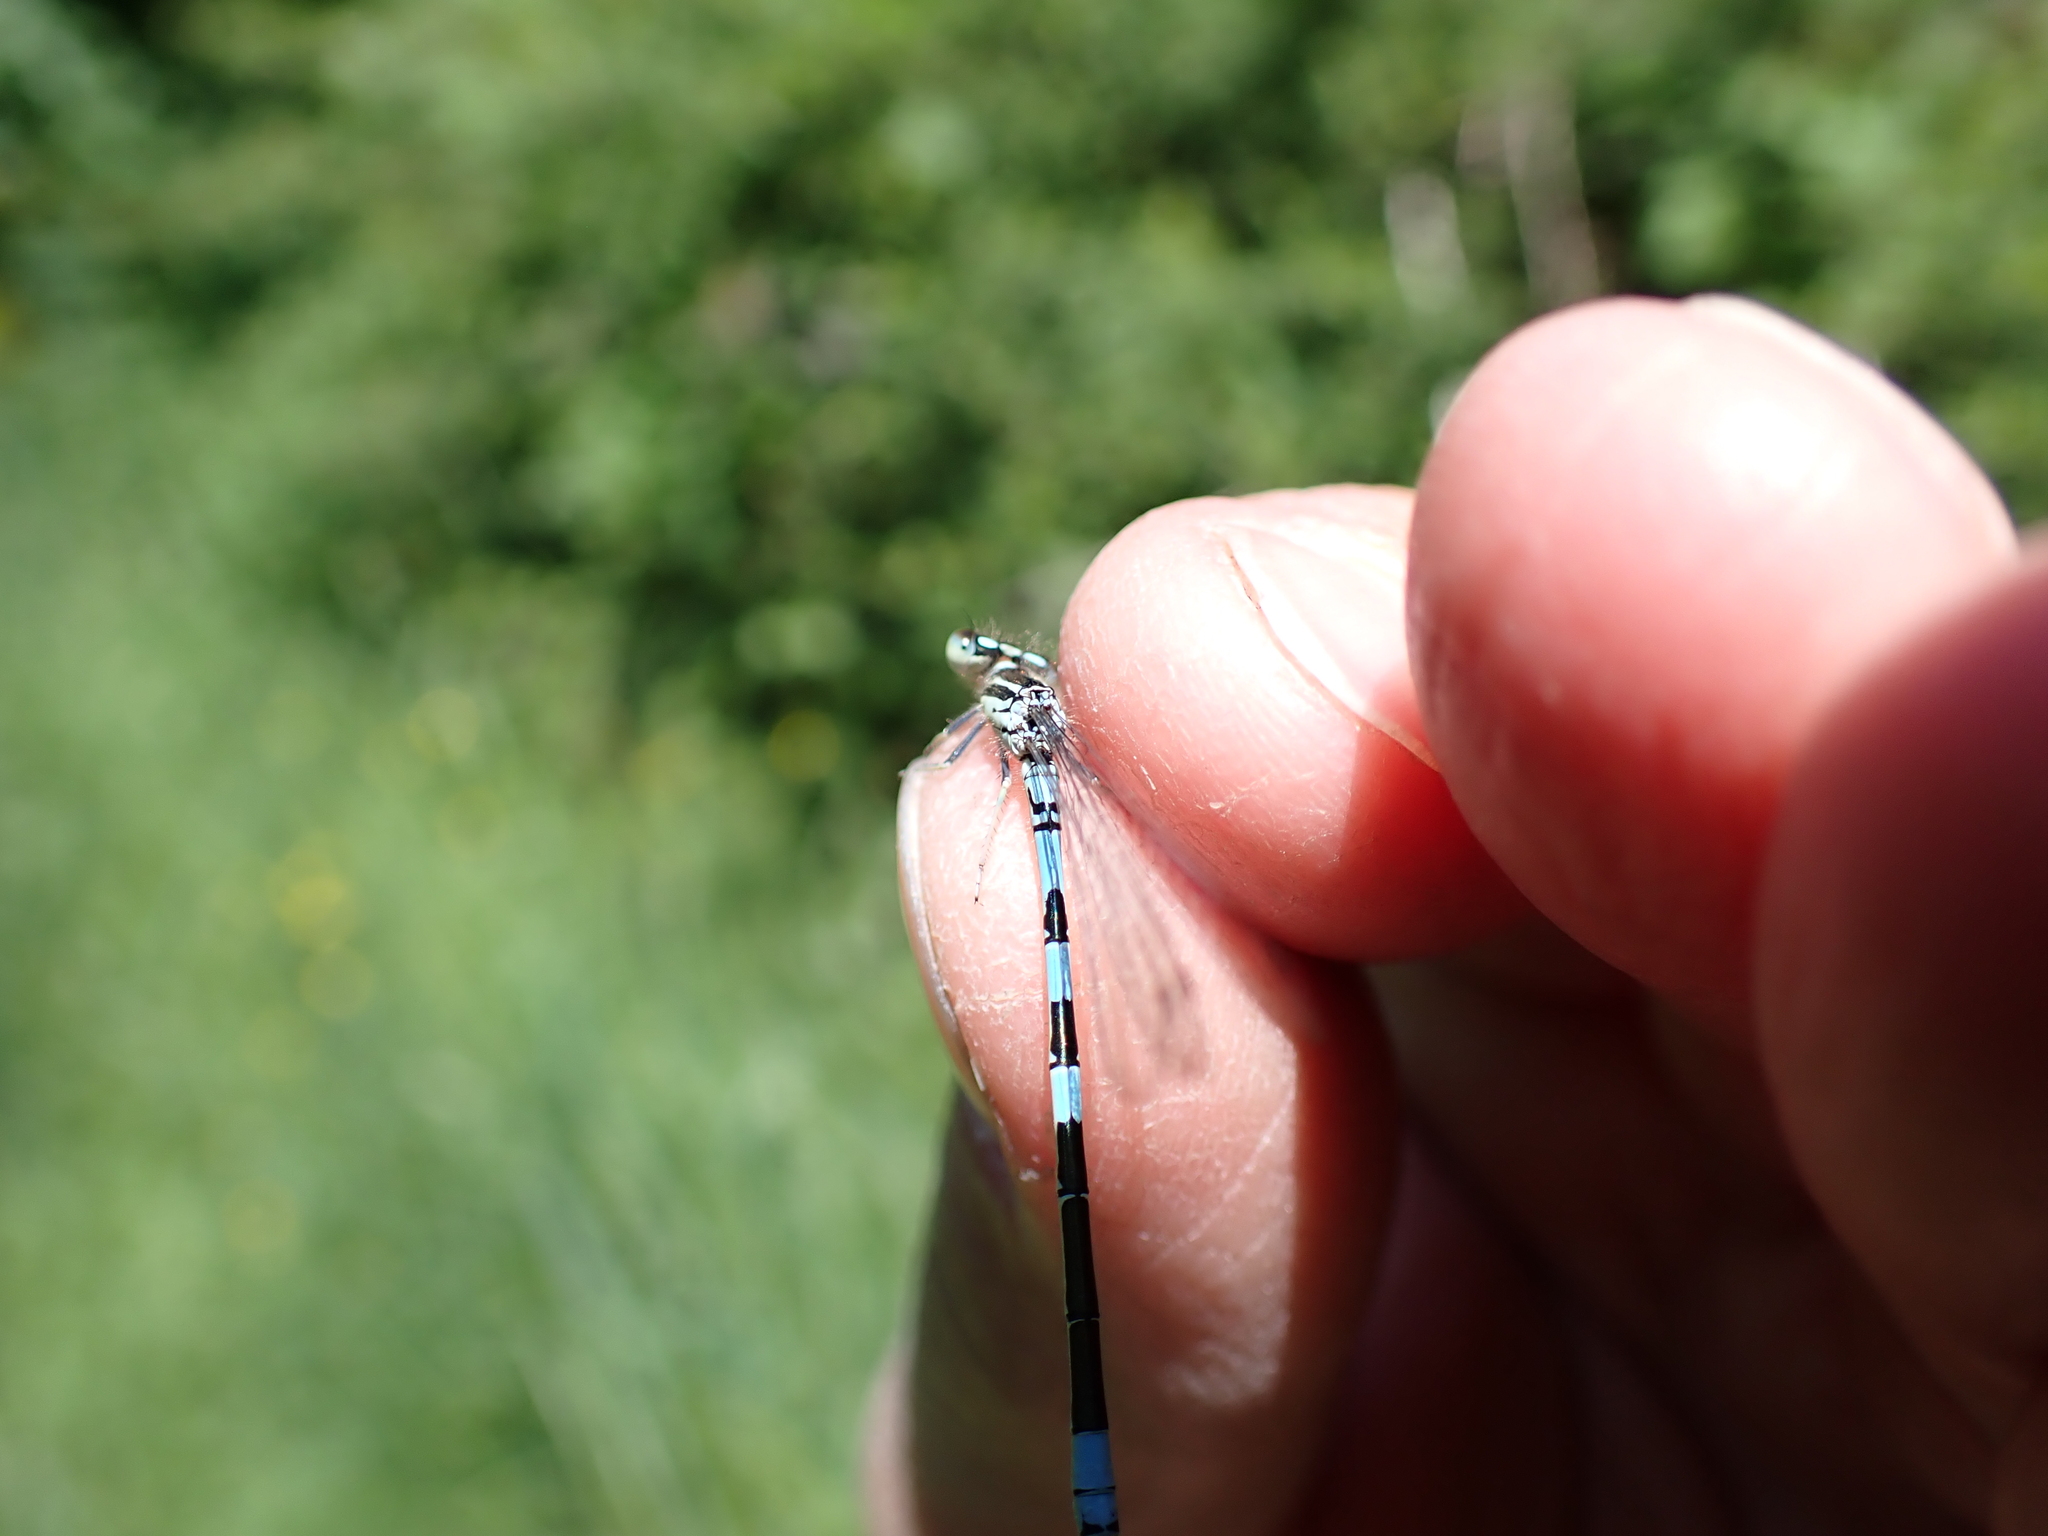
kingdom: Animalia
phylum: Arthropoda
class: Insecta
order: Odonata
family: Coenagrionidae
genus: Coenagrion
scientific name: Coenagrion scitulum
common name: Dainty bluet
